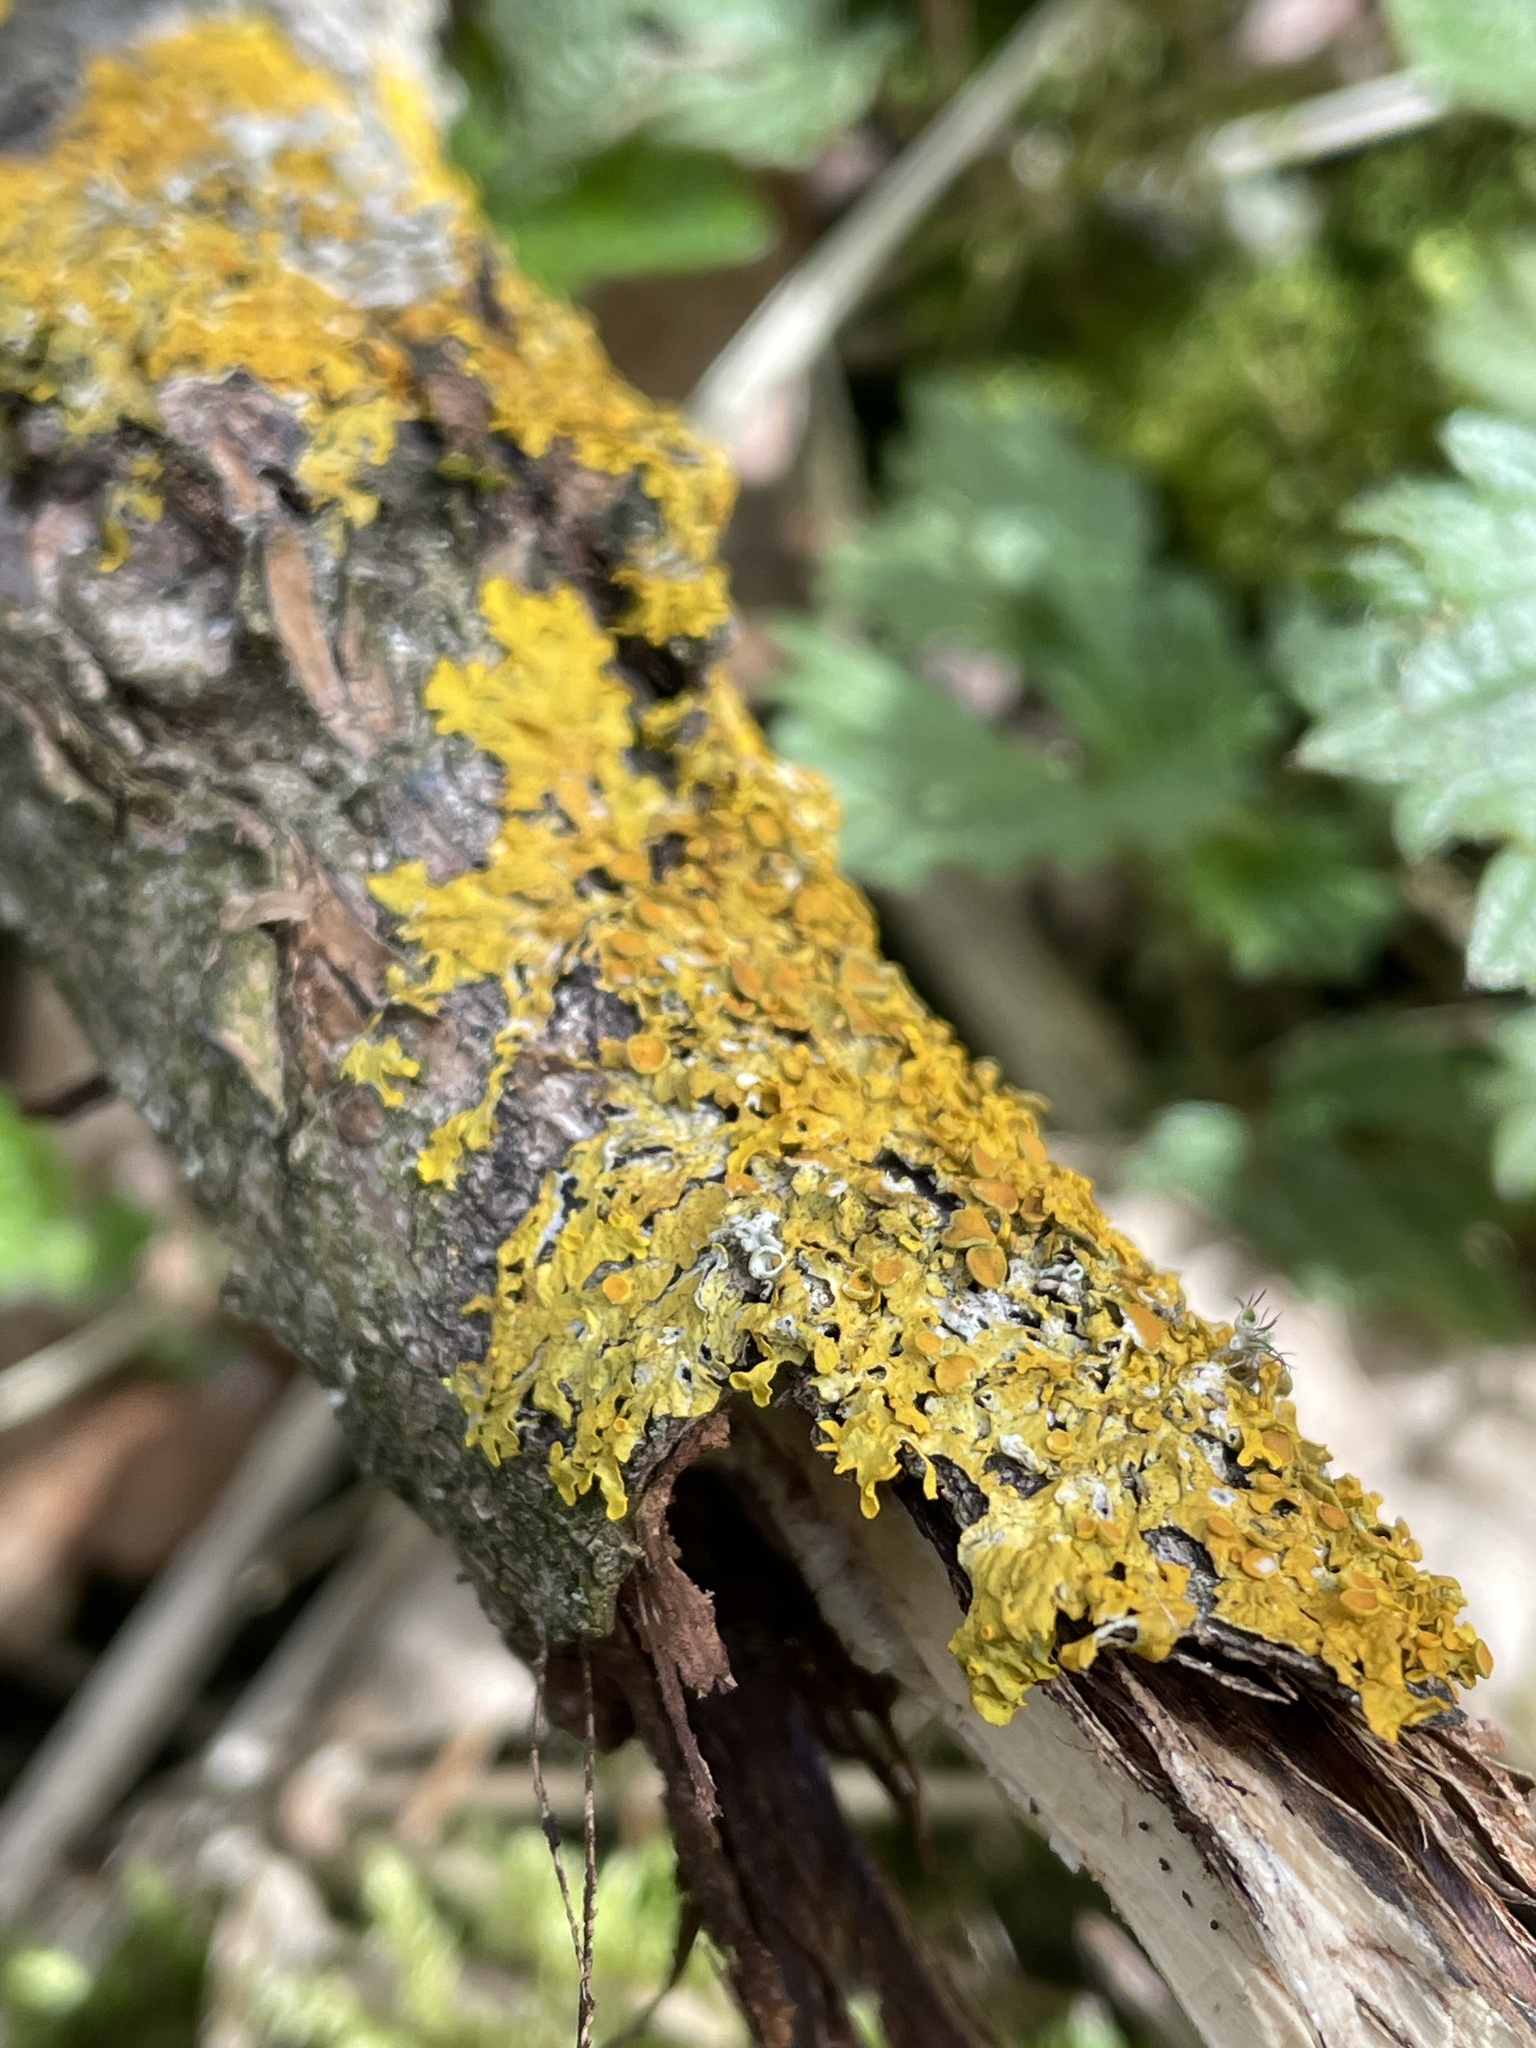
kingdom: Fungi
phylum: Ascomycota
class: Lecanoromycetes
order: Teloschistales
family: Teloschistaceae
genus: Xanthoria
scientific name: Xanthoria parietina
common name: Common orange lichen
